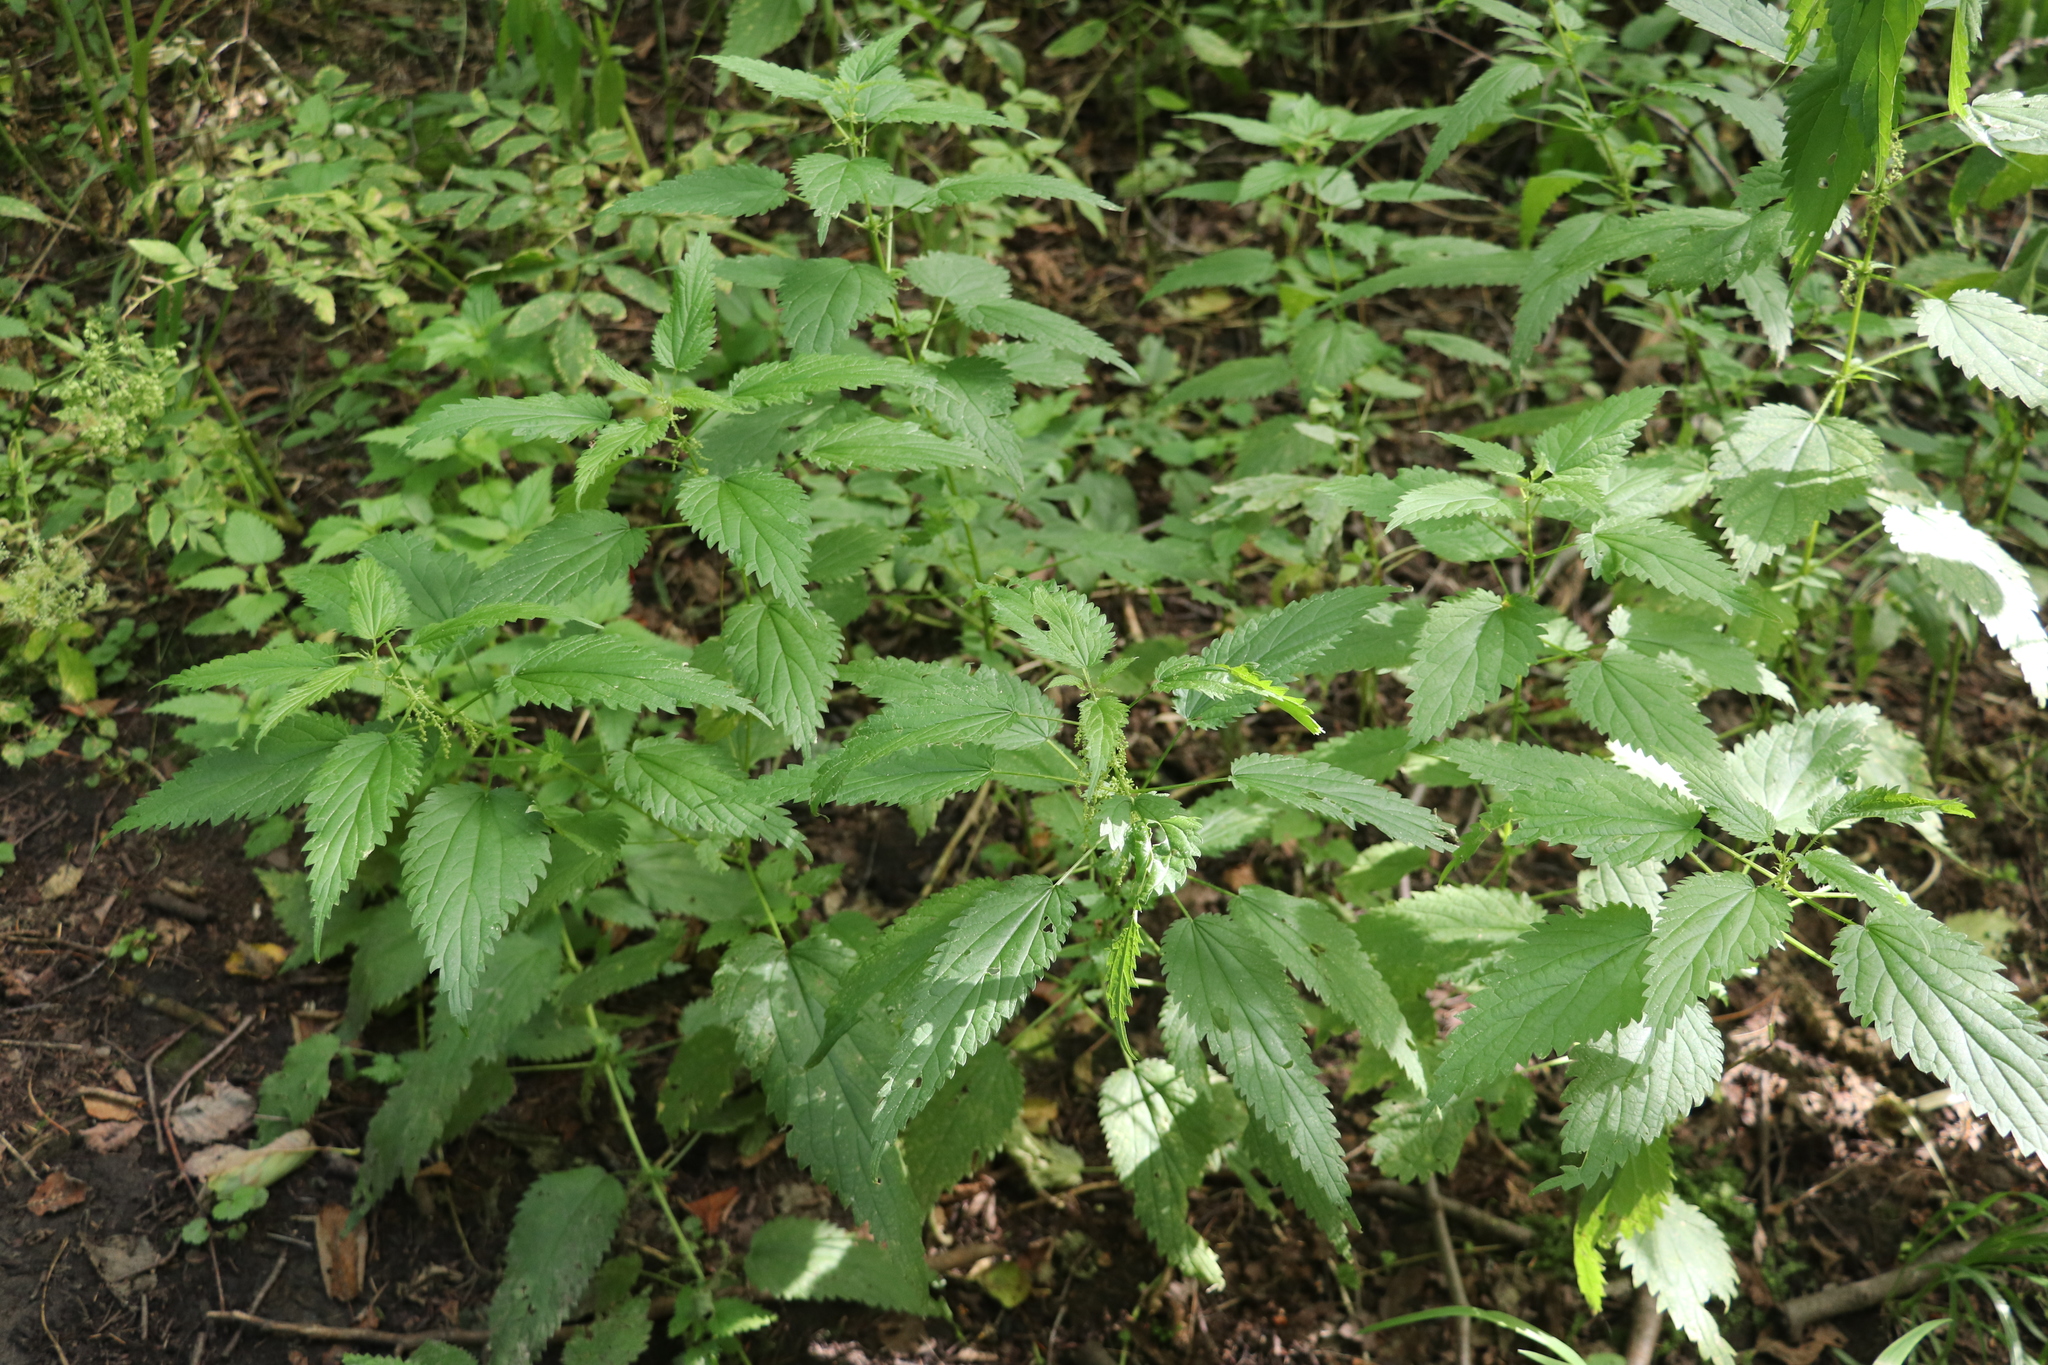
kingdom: Plantae
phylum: Tracheophyta
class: Magnoliopsida
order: Rosales
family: Urticaceae
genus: Urtica
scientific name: Urtica dioica
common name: Common nettle
